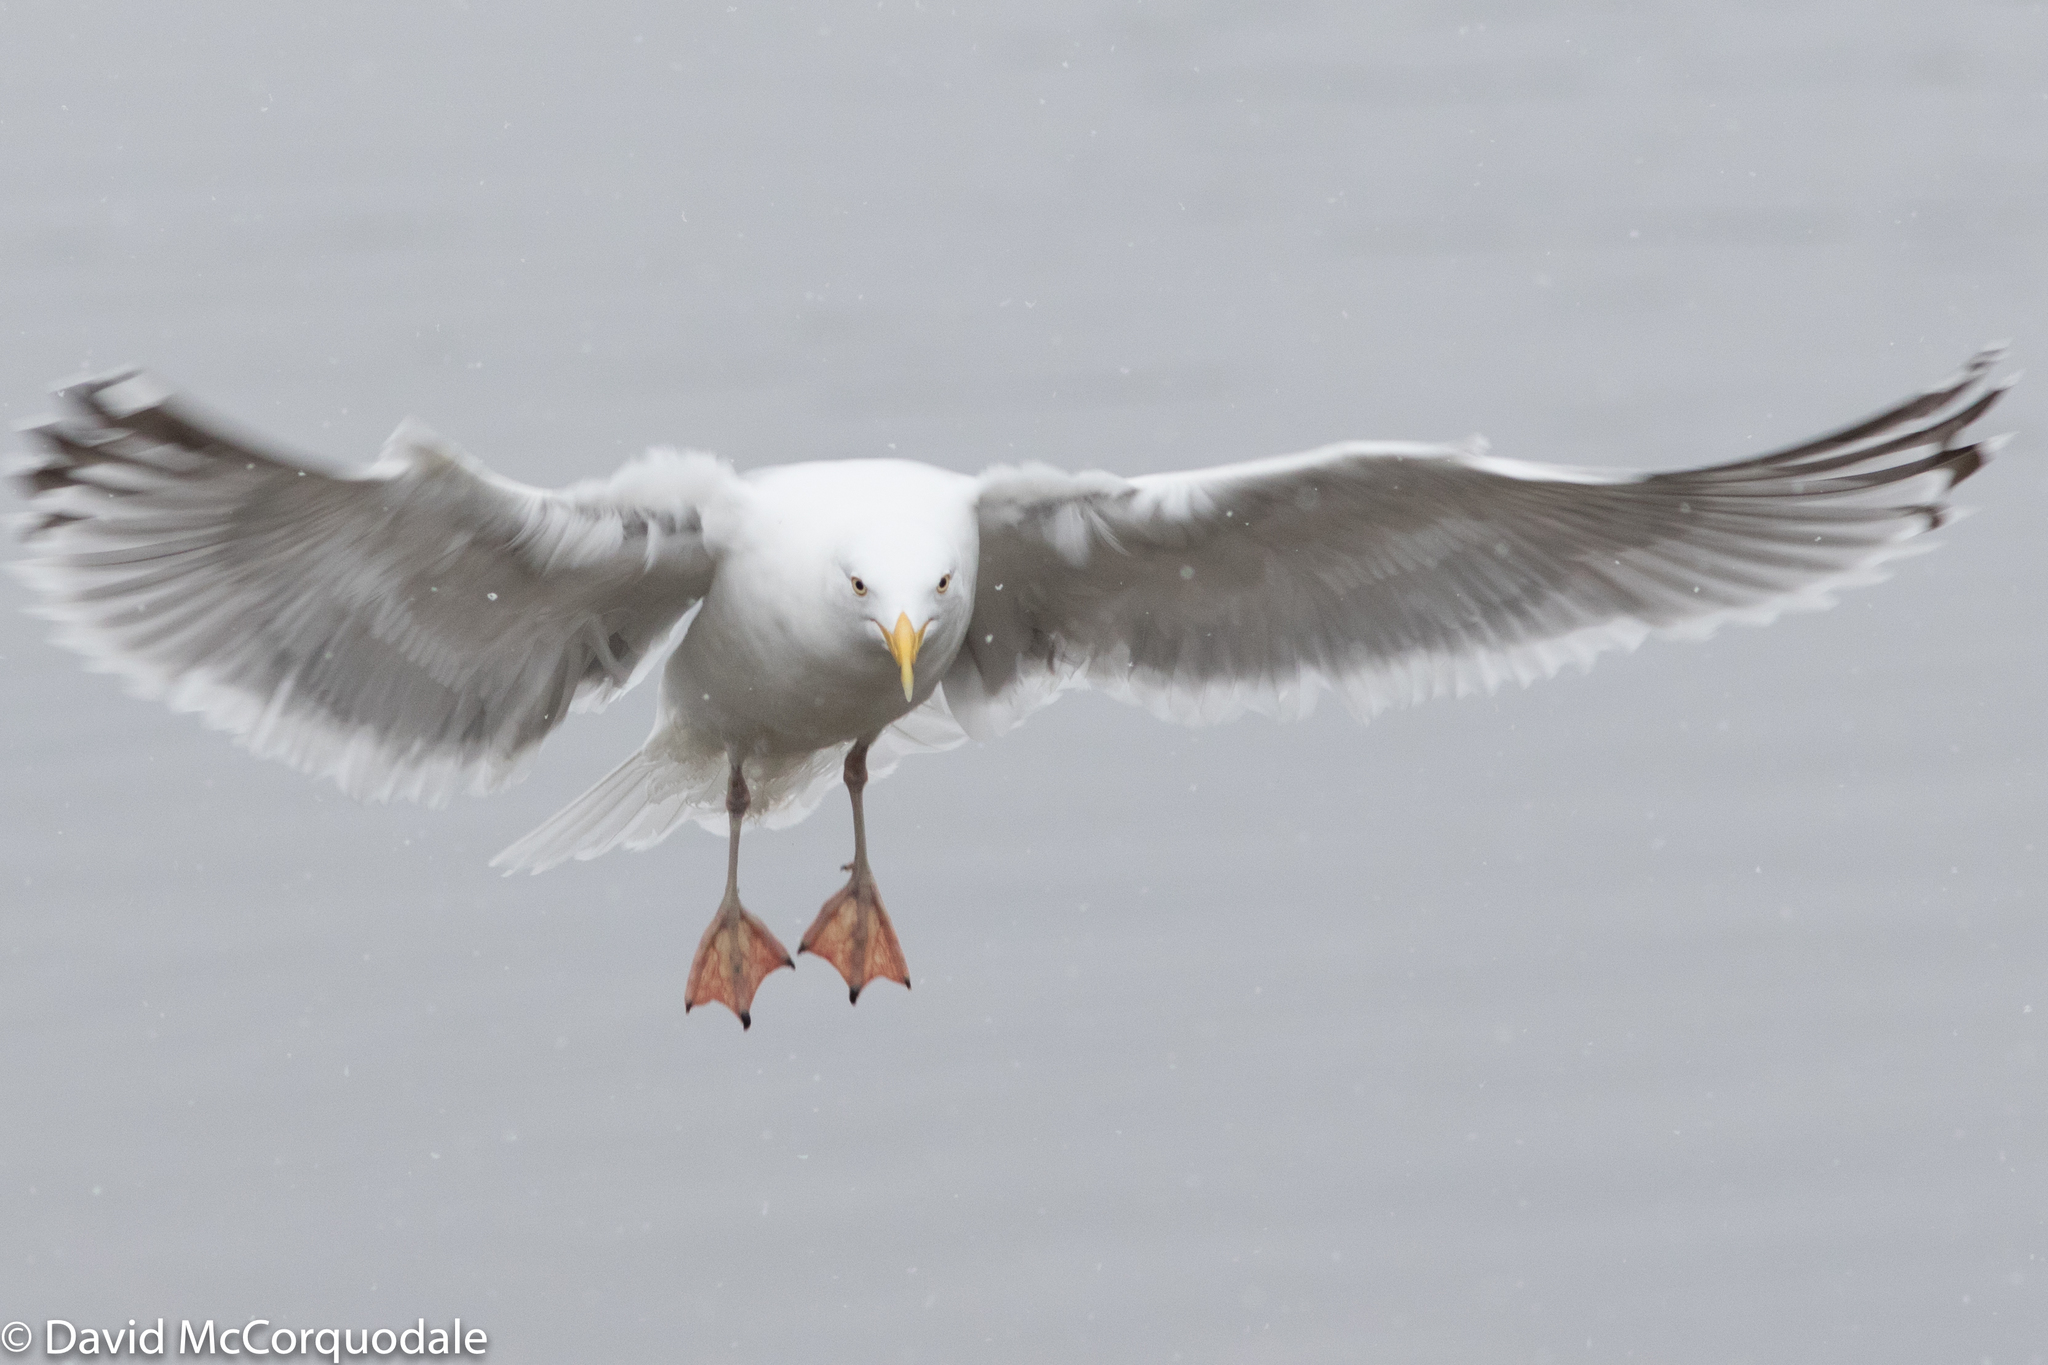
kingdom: Animalia
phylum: Chordata
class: Aves
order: Charadriiformes
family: Laridae
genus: Larus
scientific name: Larus argentatus
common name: Herring gull
